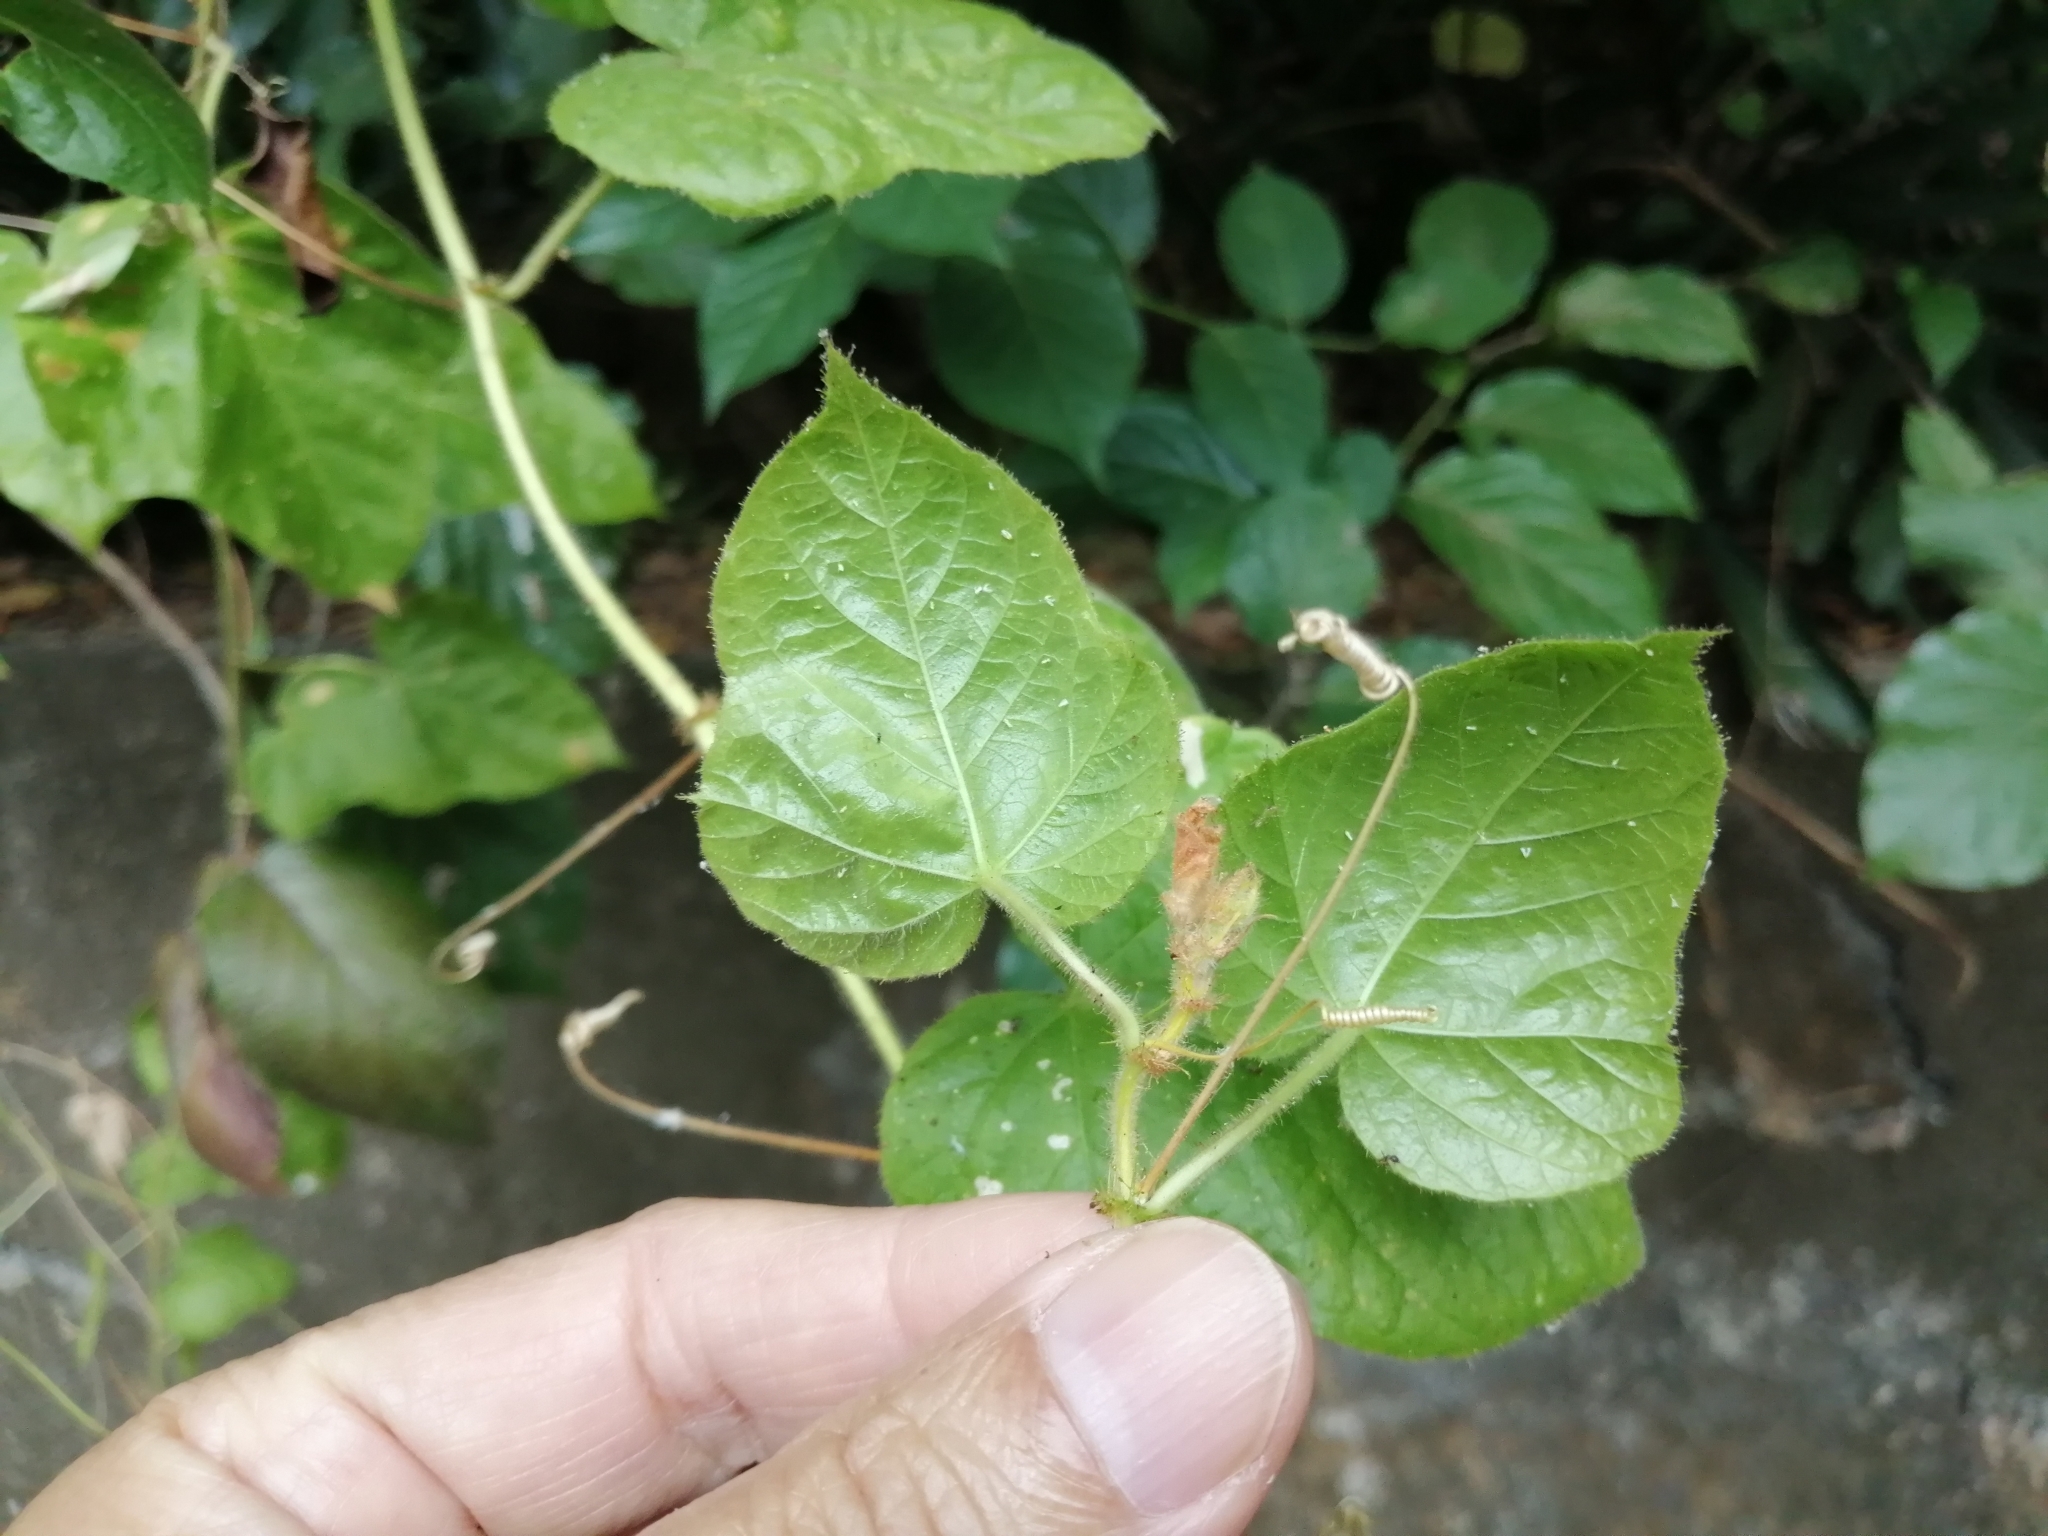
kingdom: Plantae
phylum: Tracheophyta
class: Magnoliopsida
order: Malpighiales
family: Passifloraceae
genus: Passiflora
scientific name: Passiflora vesicaria
